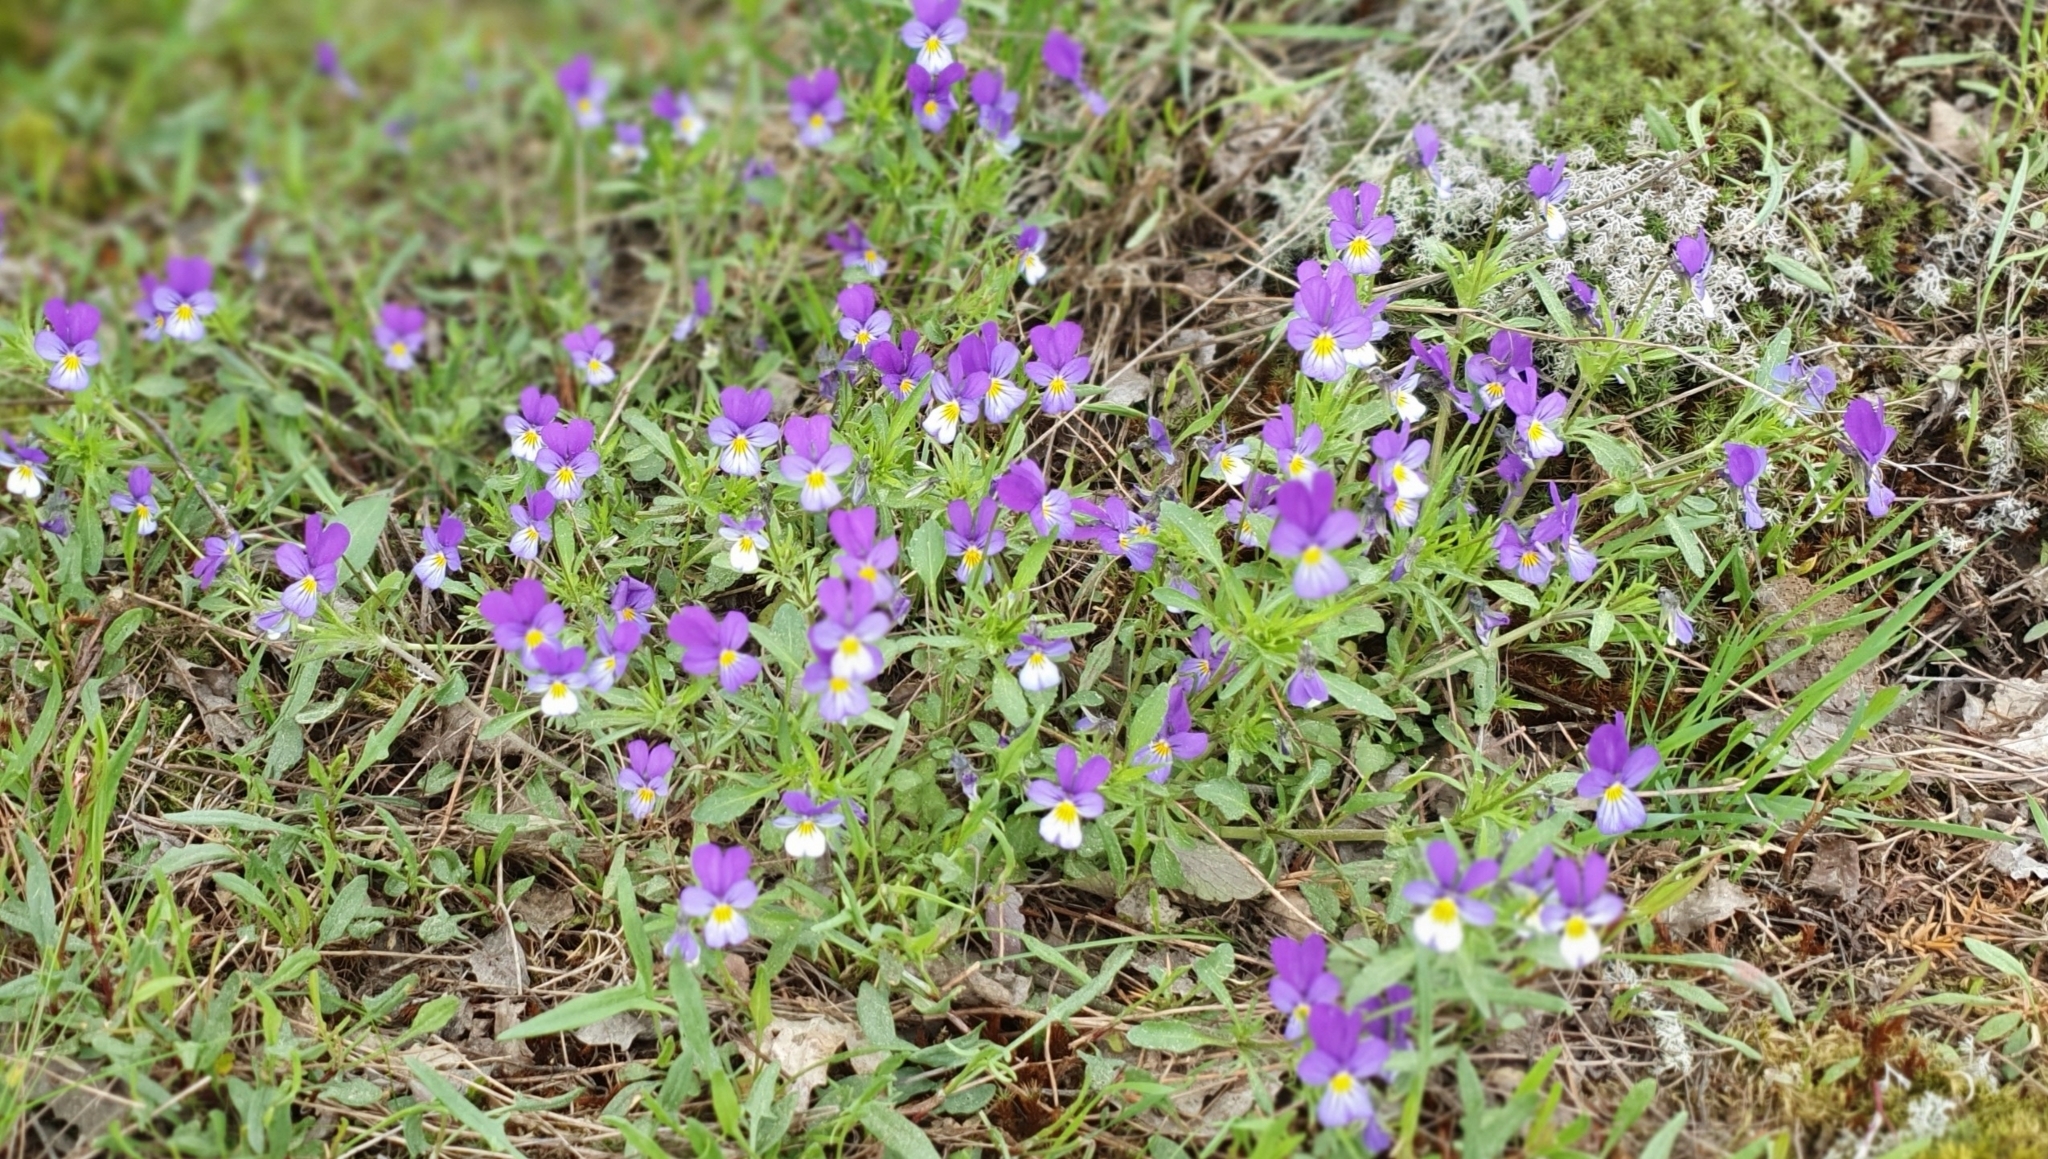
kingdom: Plantae
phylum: Tracheophyta
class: Magnoliopsida
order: Malpighiales
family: Violaceae
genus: Viola
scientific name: Viola tricolor
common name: Pansy
